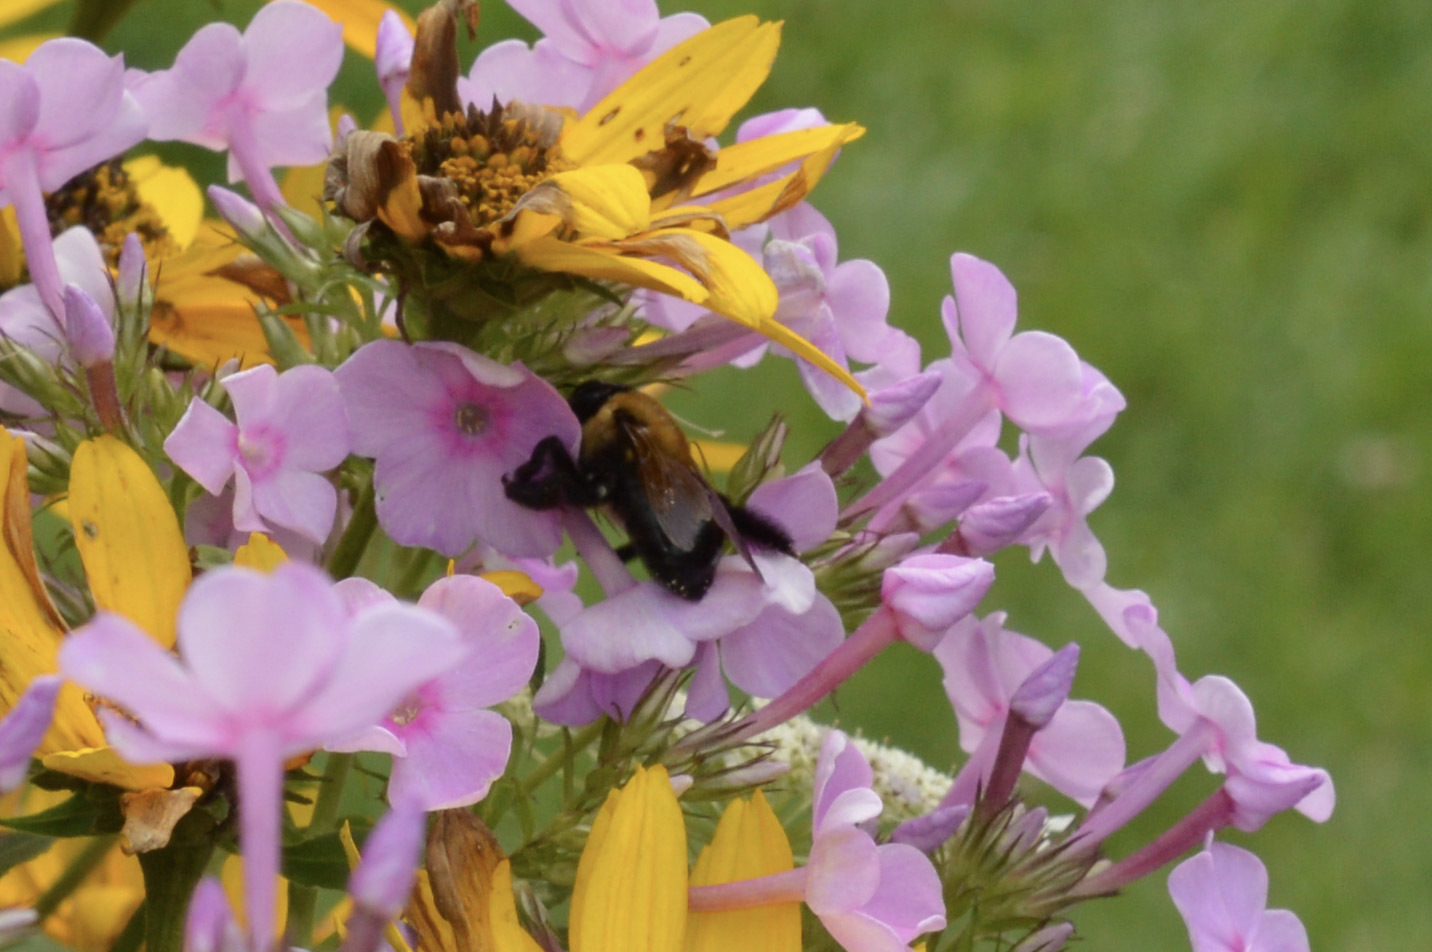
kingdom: Animalia
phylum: Arthropoda
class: Insecta
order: Hymenoptera
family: Apidae
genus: Xylocopa
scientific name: Xylocopa virginica
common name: Carpenter bee
